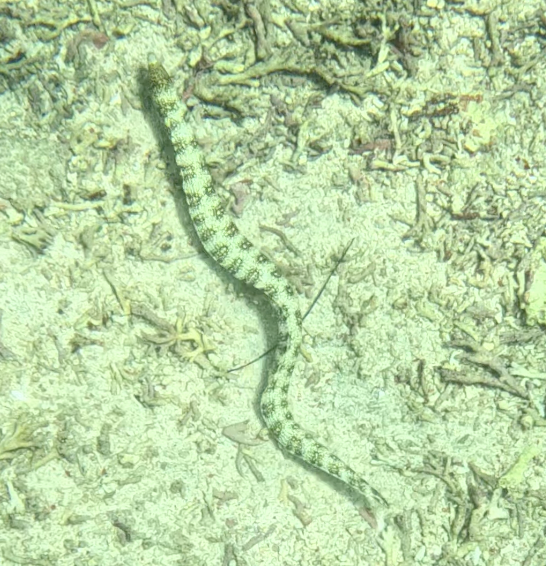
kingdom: Animalia
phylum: Chordata
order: Anguilliformes
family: Muraenidae
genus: Echidna
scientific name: Echidna nebulosa
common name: Snowflake moray
